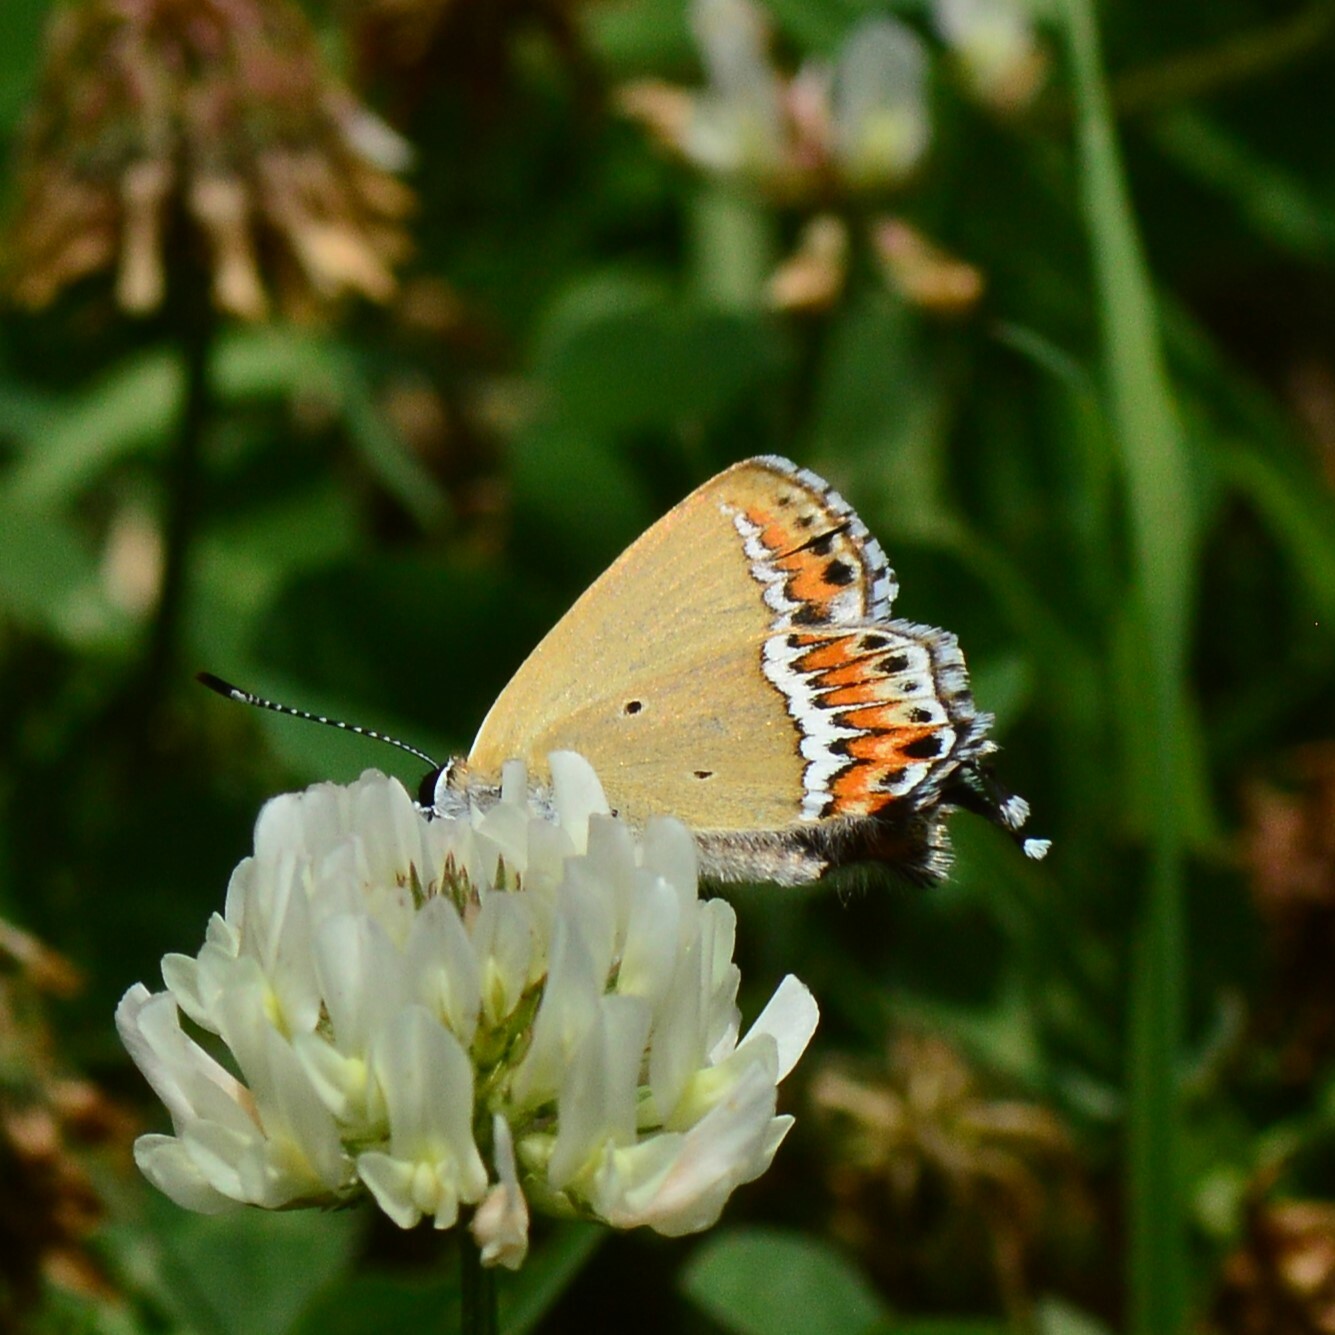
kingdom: Animalia
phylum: Arthropoda
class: Insecta
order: Lepidoptera
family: Lycaenidae
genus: Heliophorus
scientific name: Heliophorus sena
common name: Sorrel sapphire
